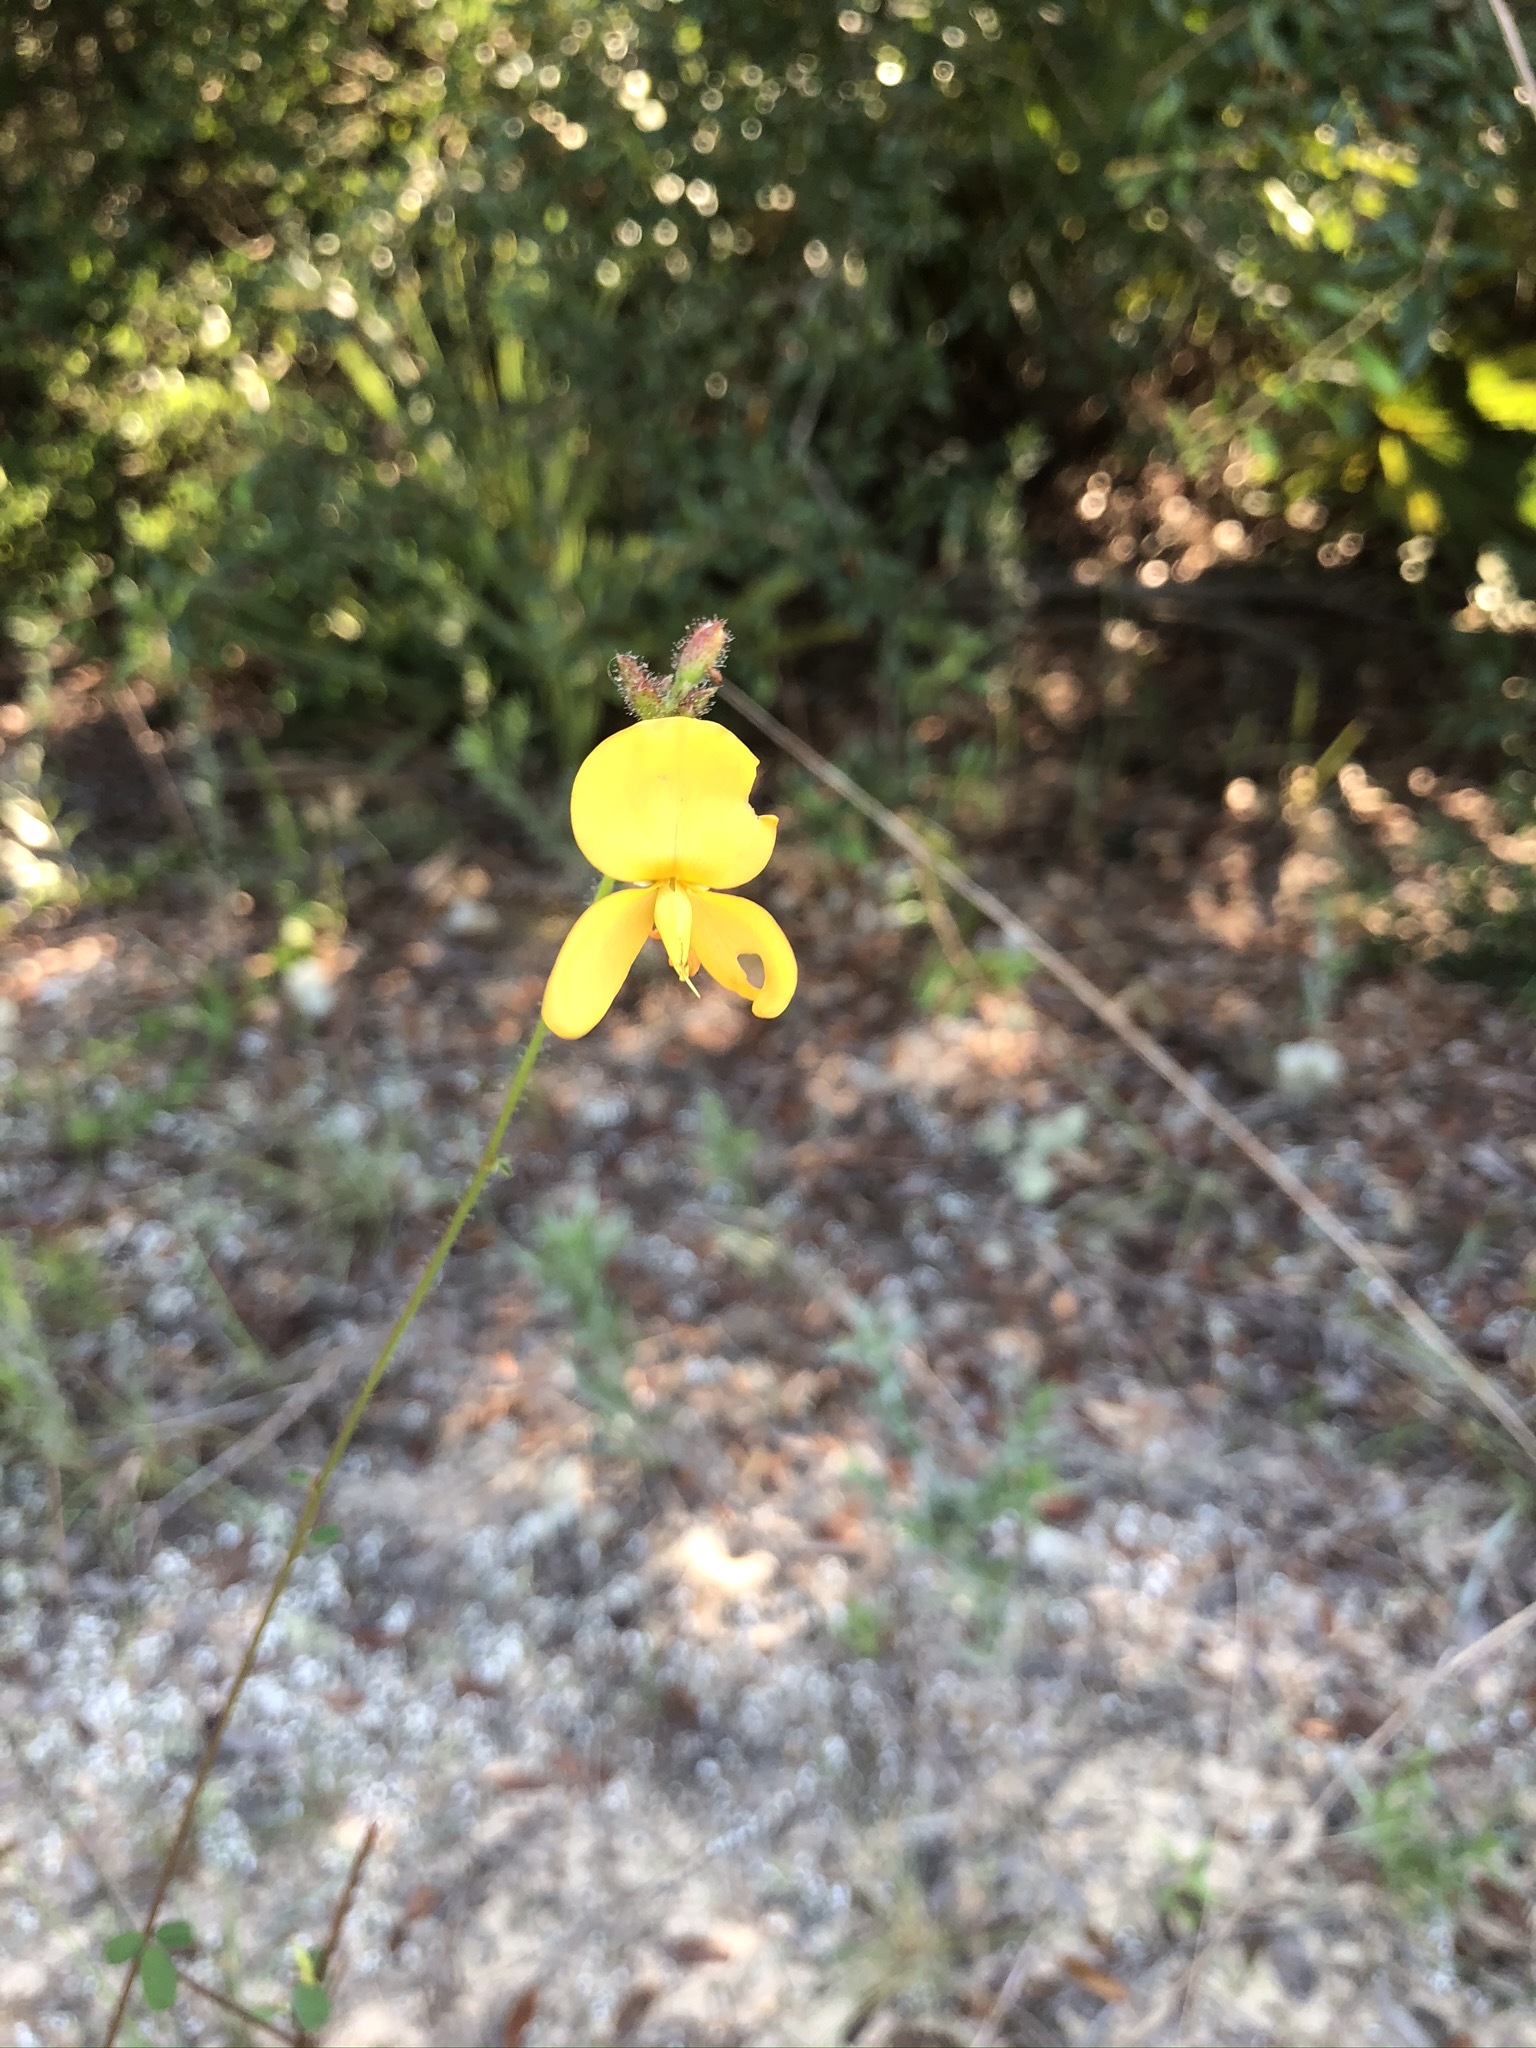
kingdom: Plantae
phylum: Tracheophyta
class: Magnoliopsida
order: Fabales
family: Fabaceae
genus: Chapmannia
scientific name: Chapmannia floridana
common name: Alicia
